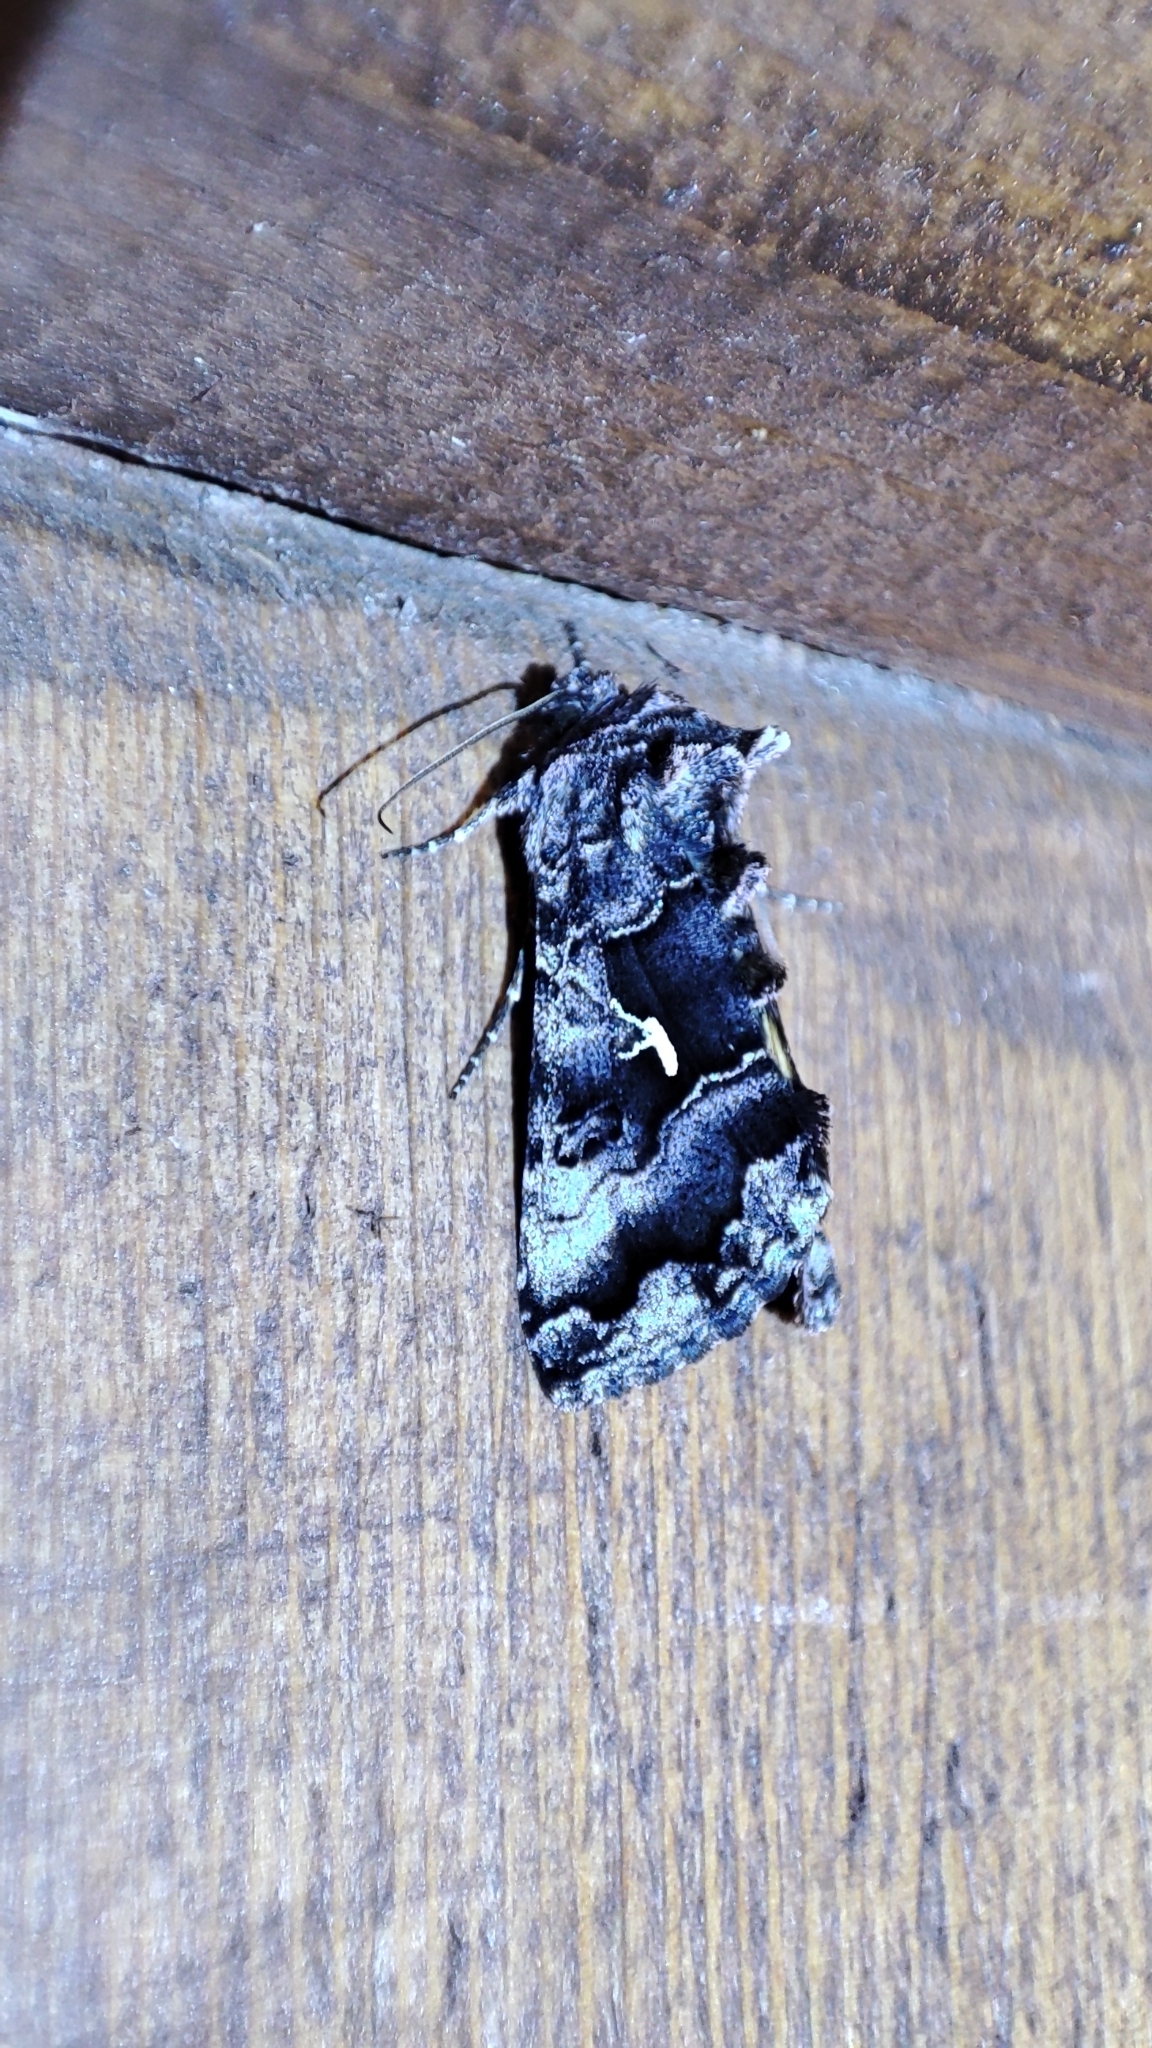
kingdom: Animalia
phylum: Arthropoda
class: Insecta
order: Lepidoptera
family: Noctuidae
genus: Syngrapha
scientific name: Syngrapha ain
